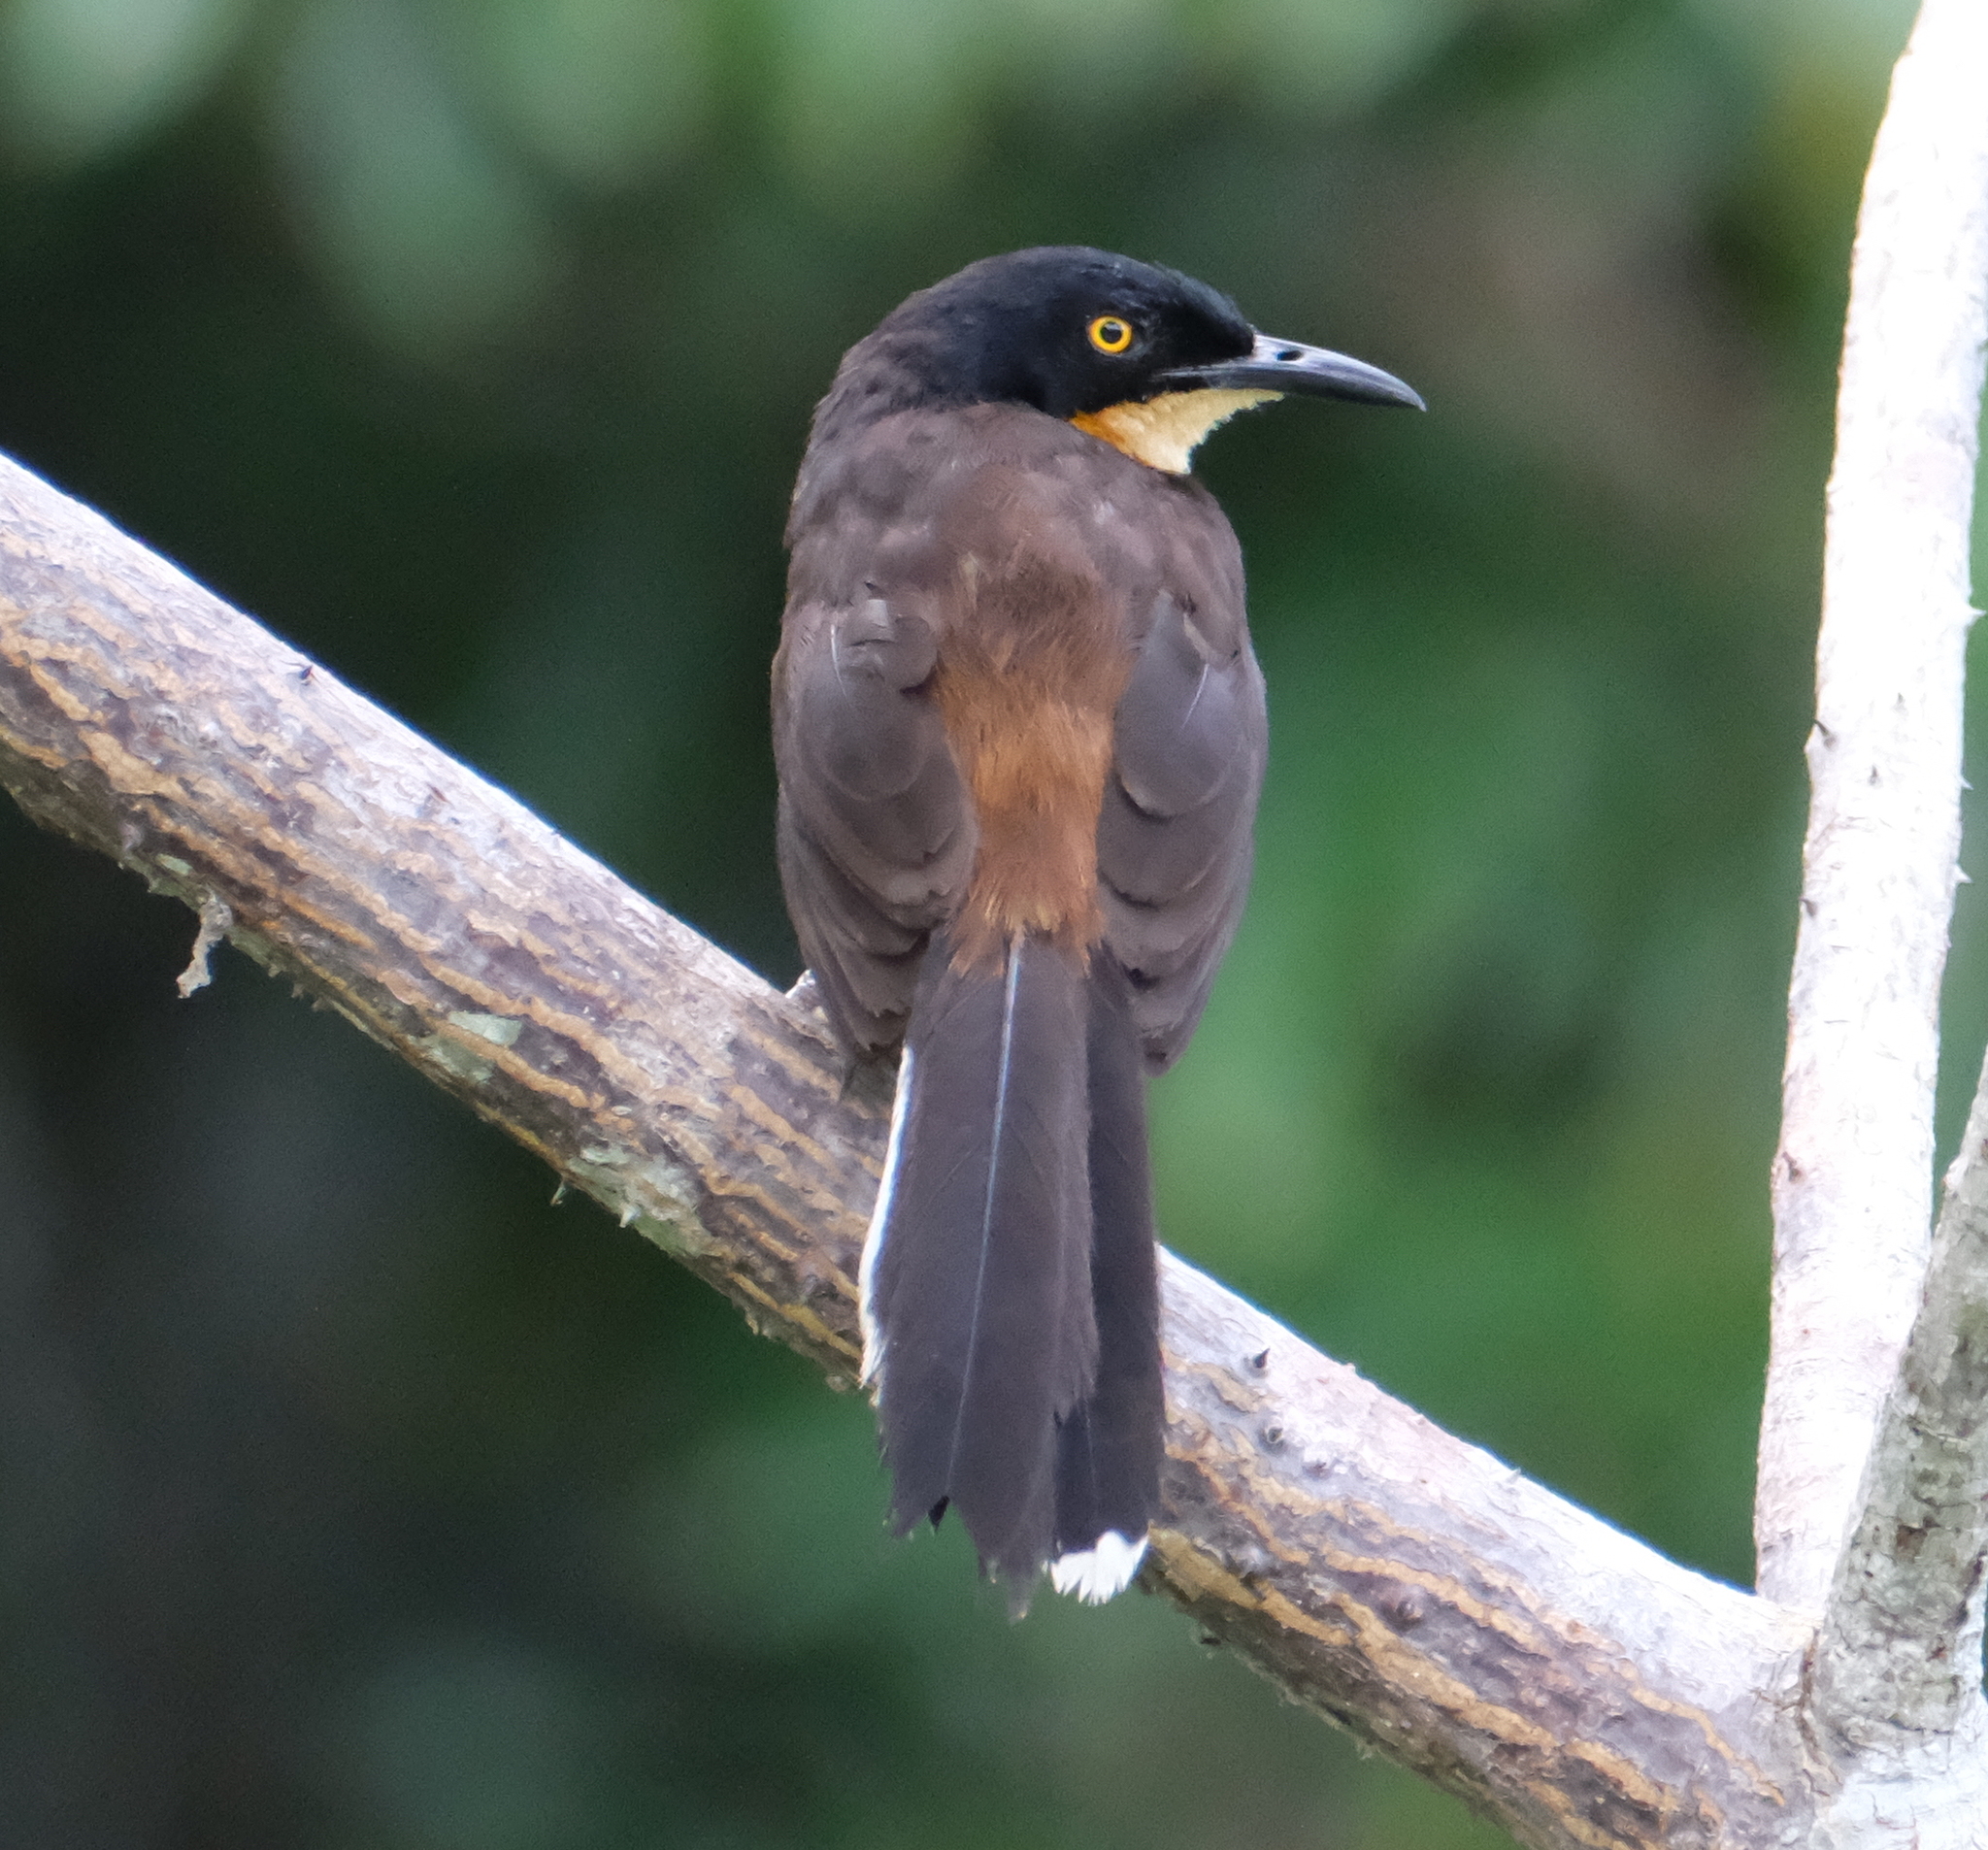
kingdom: Animalia
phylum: Chordata
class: Aves
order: Passeriformes
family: Donacobiidae
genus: Donacobius
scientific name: Donacobius atricapilla
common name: Black-capped donacobius
